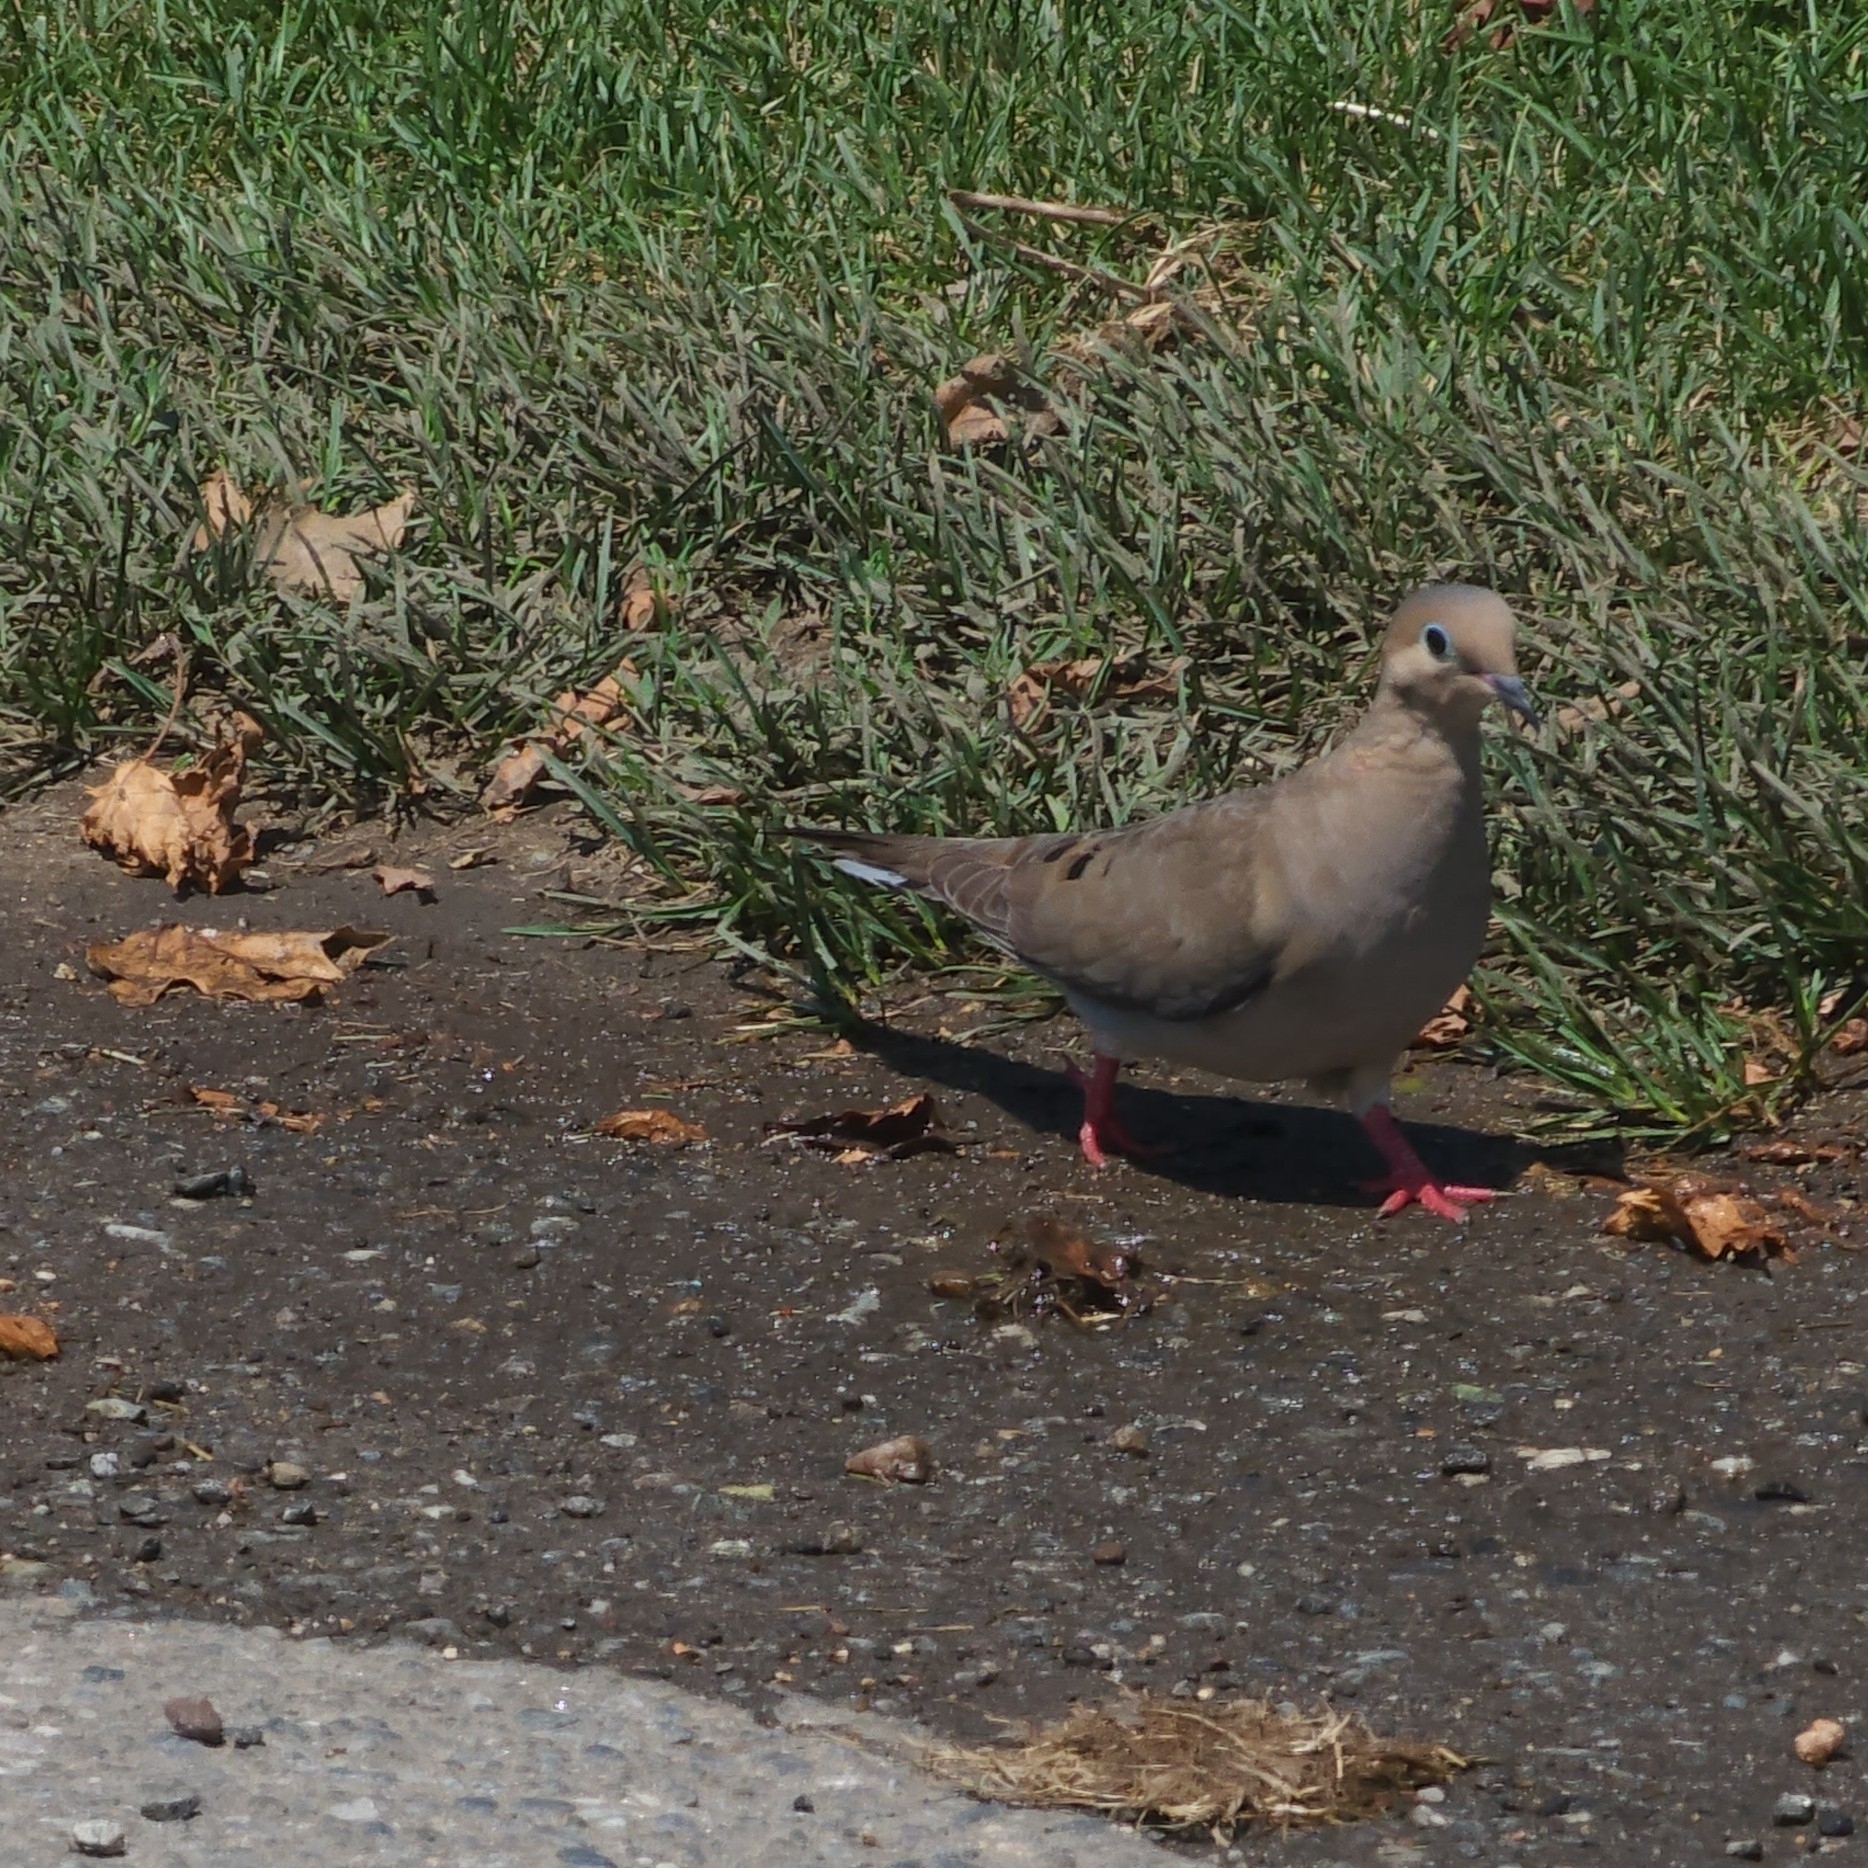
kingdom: Animalia
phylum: Chordata
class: Aves
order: Columbiformes
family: Columbidae
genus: Zenaida
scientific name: Zenaida macroura
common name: Mourning dove
